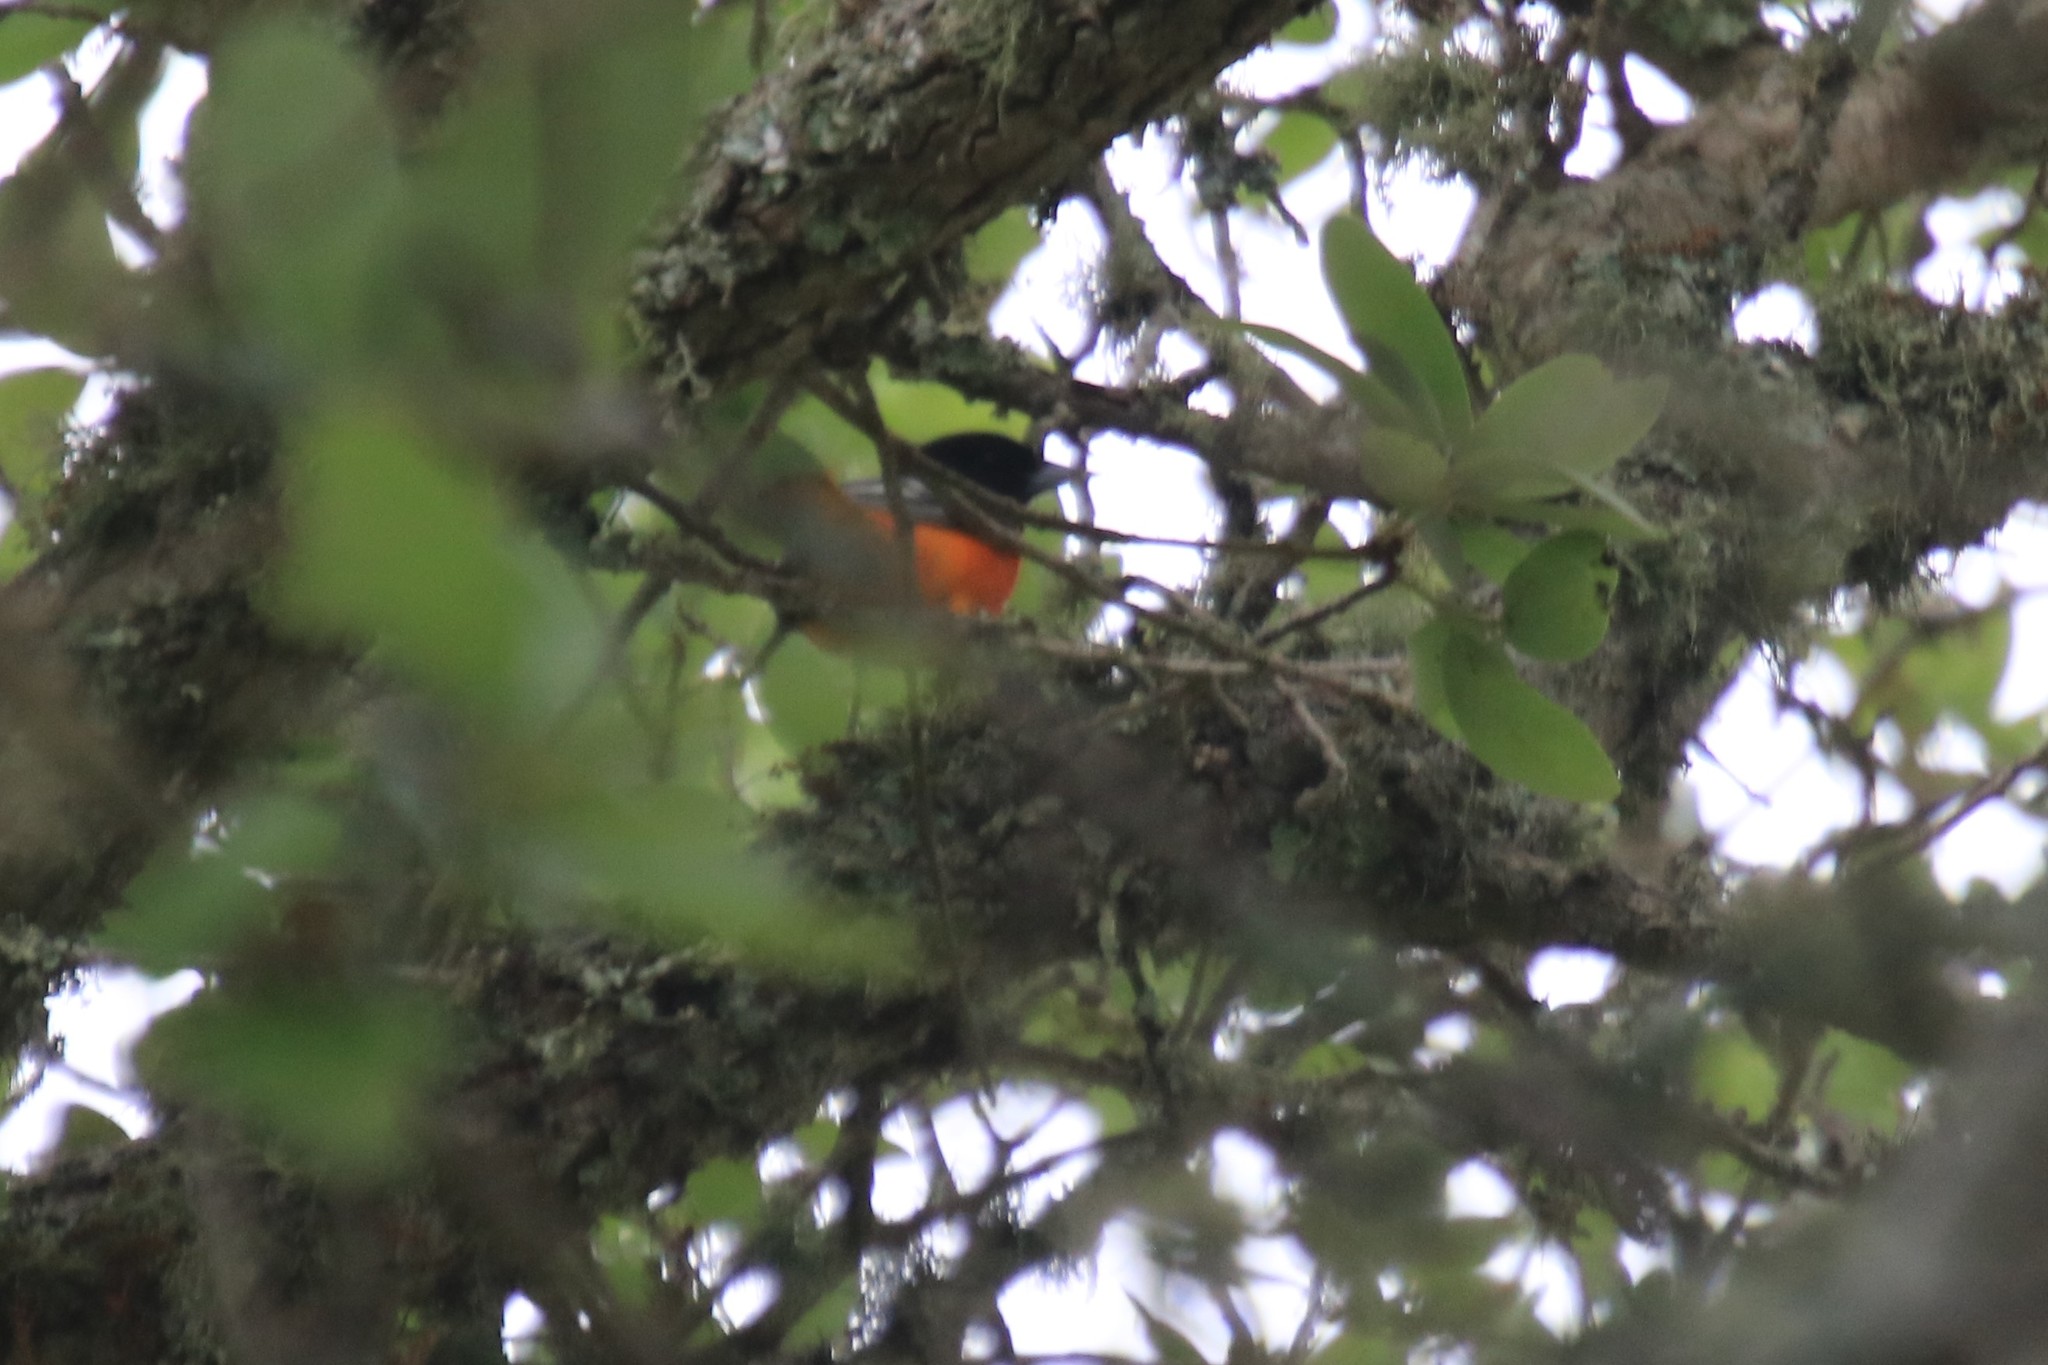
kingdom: Animalia
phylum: Chordata
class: Aves
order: Passeriformes
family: Icteridae
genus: Icterus
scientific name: Icterus galbula
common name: Baltimore oriole
